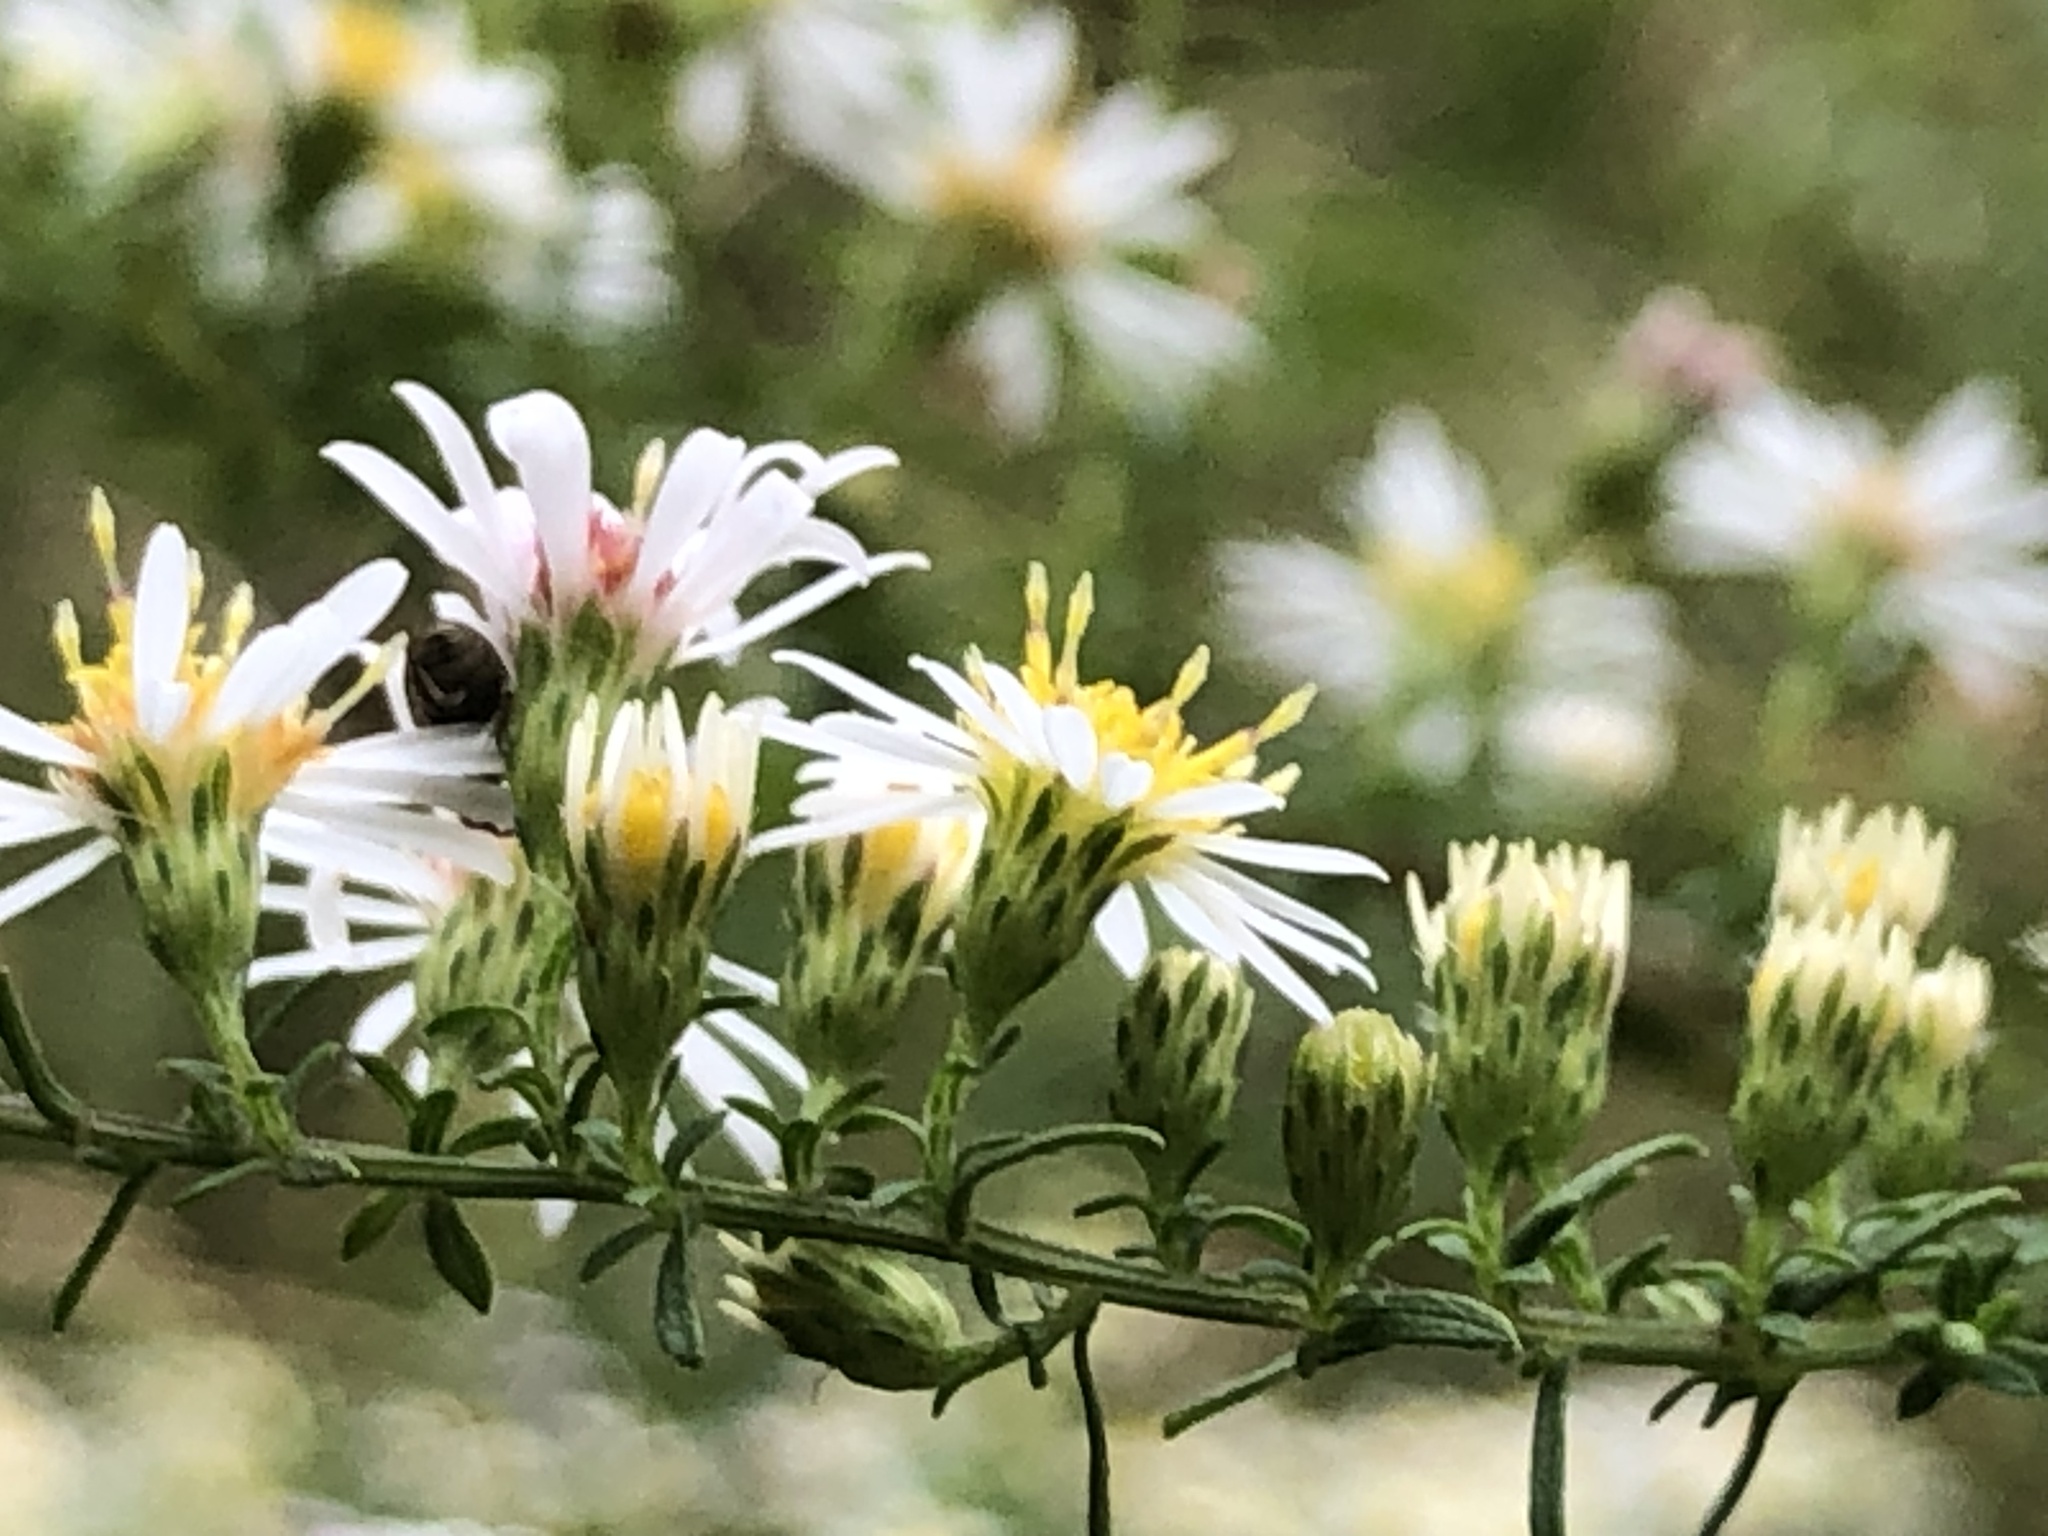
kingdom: Plantae
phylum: Tracheophyta
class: Magnoliopsida
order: Asterales
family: Asteraceae
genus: Symphyotrichum
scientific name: Symphyotrichum racemosum
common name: Small white aster
